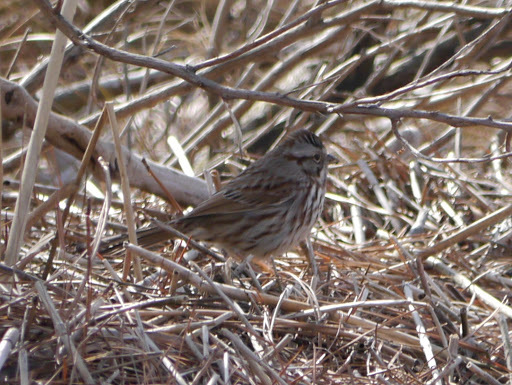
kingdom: Animalia
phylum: Chordata
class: Aves
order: Passeriformes
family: Passerellidae
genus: Melospiza
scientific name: Melospiza melodia
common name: Song sparrow
